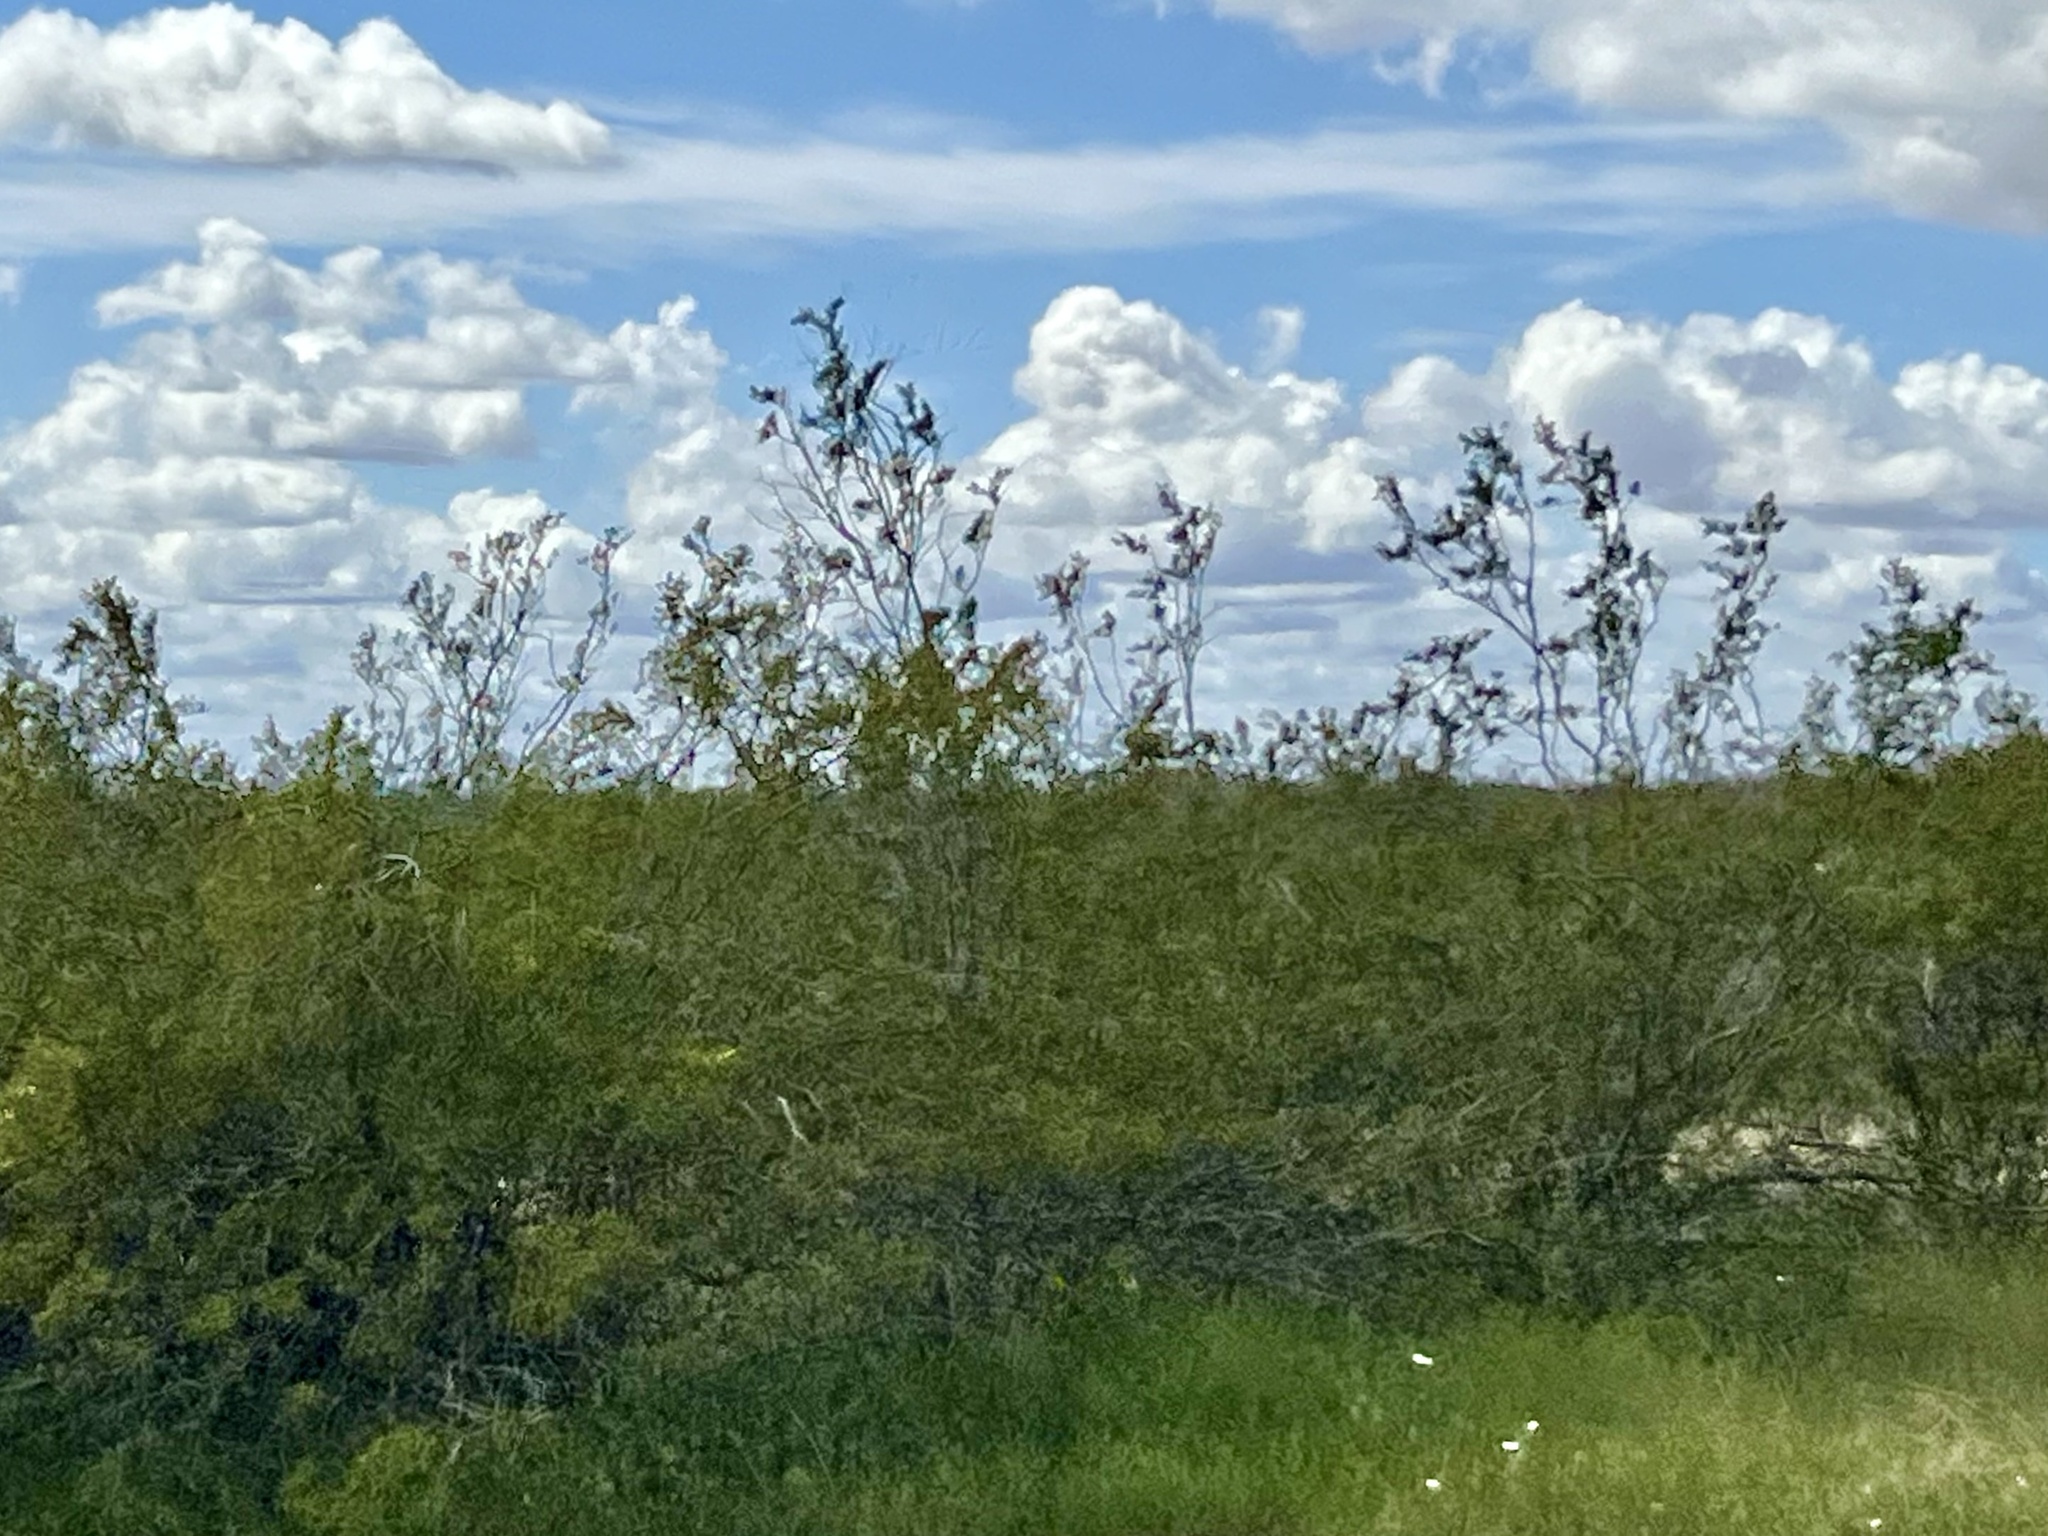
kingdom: Plantae
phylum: Tracheophyta
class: Magnoliopsida
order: Zygophyllales
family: Zygophyllaceae
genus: Larrea
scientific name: Larrea tridentata
